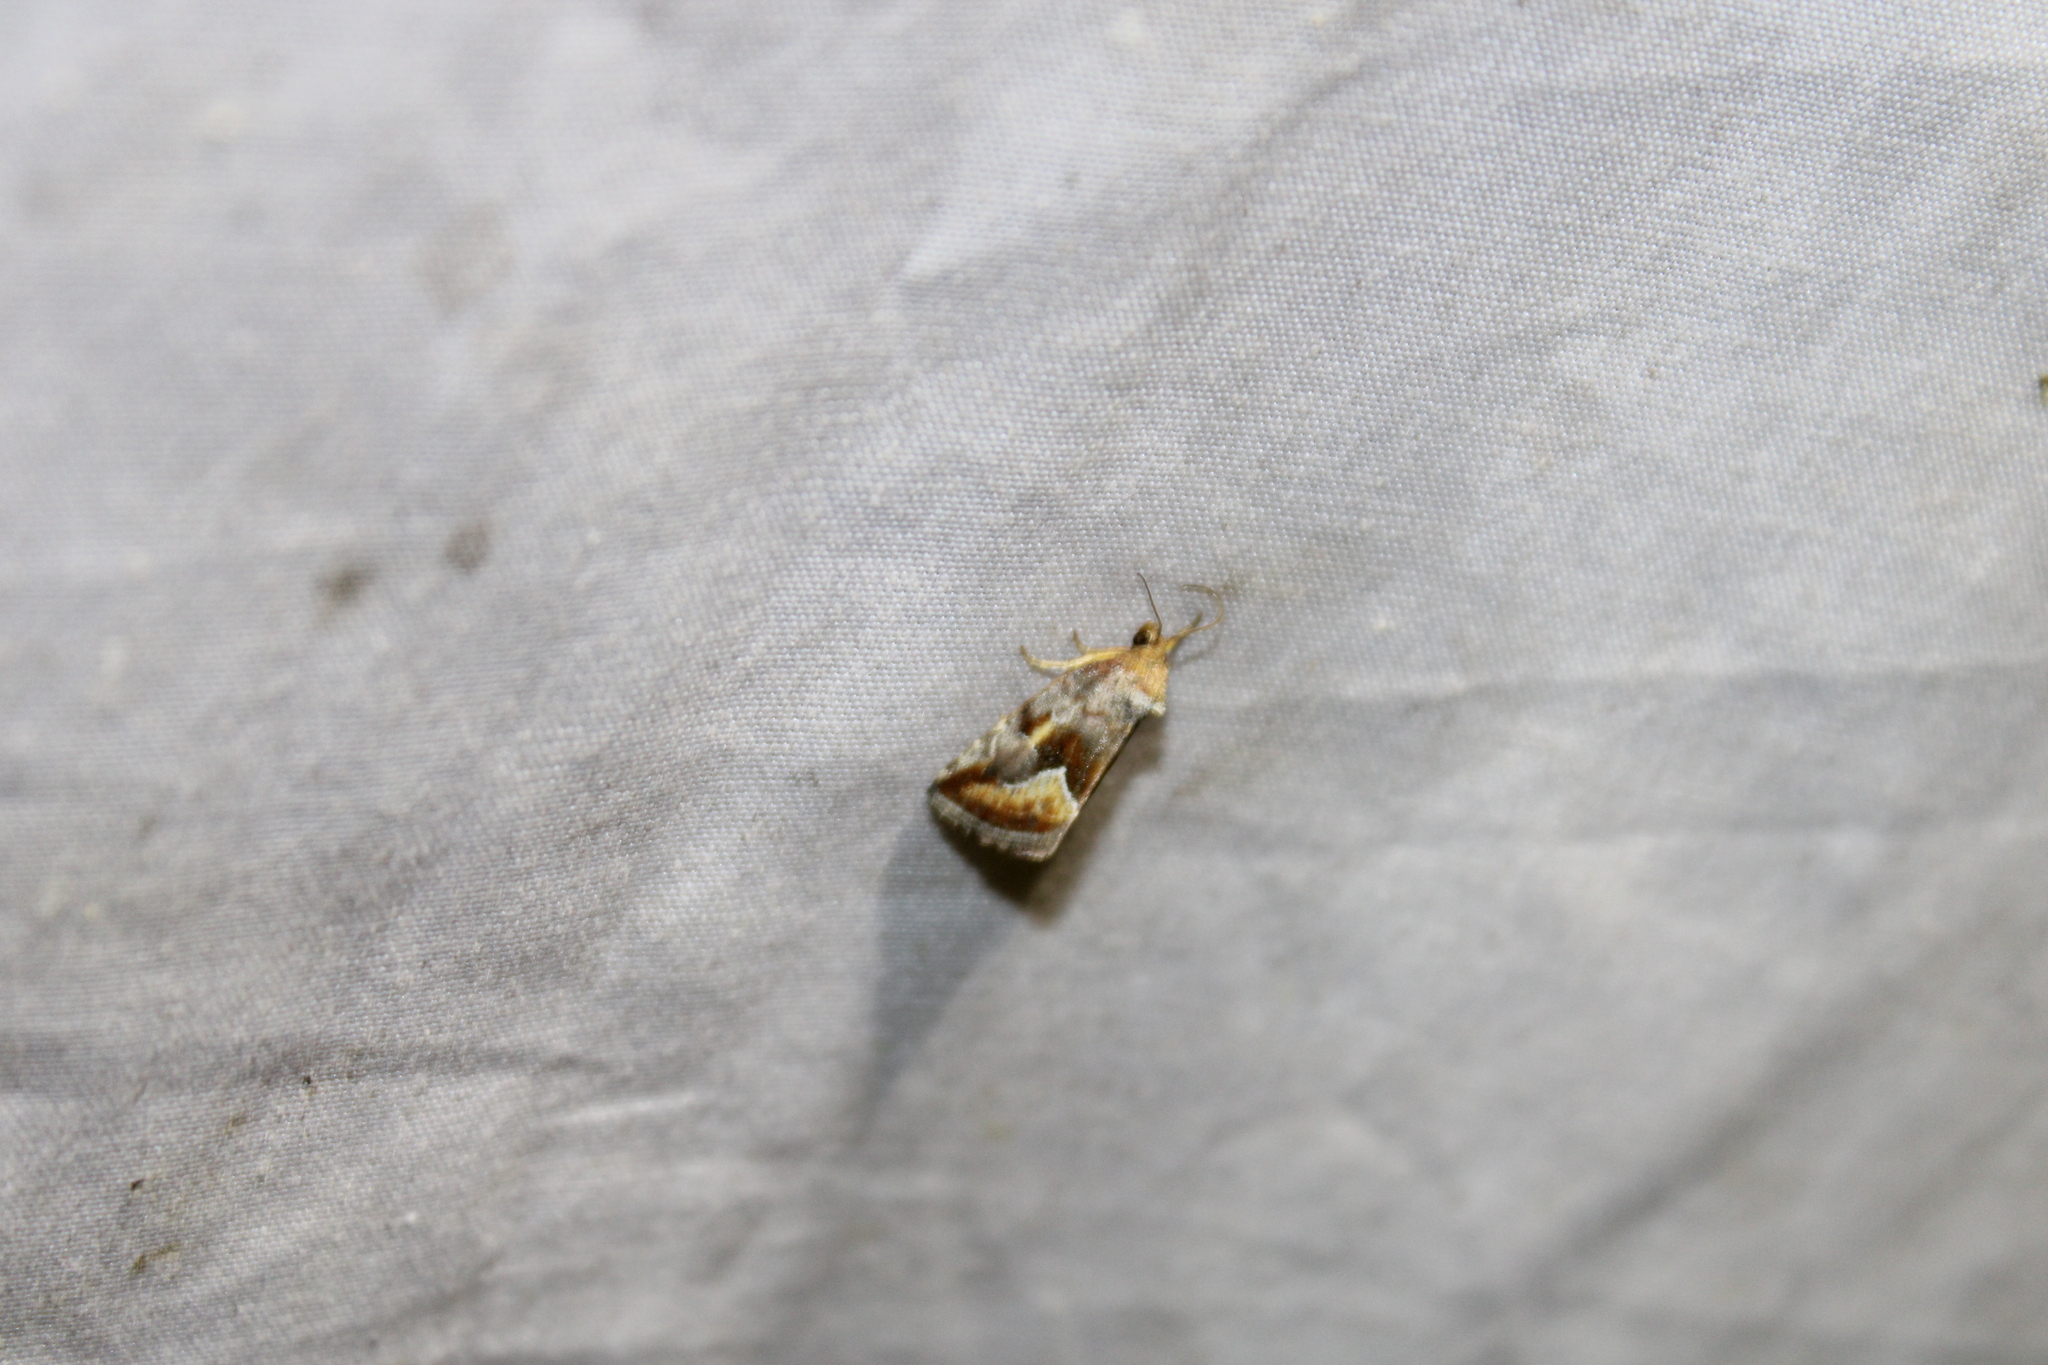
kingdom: Animalia
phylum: Arthropoda
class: Insecta
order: Lepidoptera
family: Noctuidae
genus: Deltote
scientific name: Deltote bellicula
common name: Bog glyph
